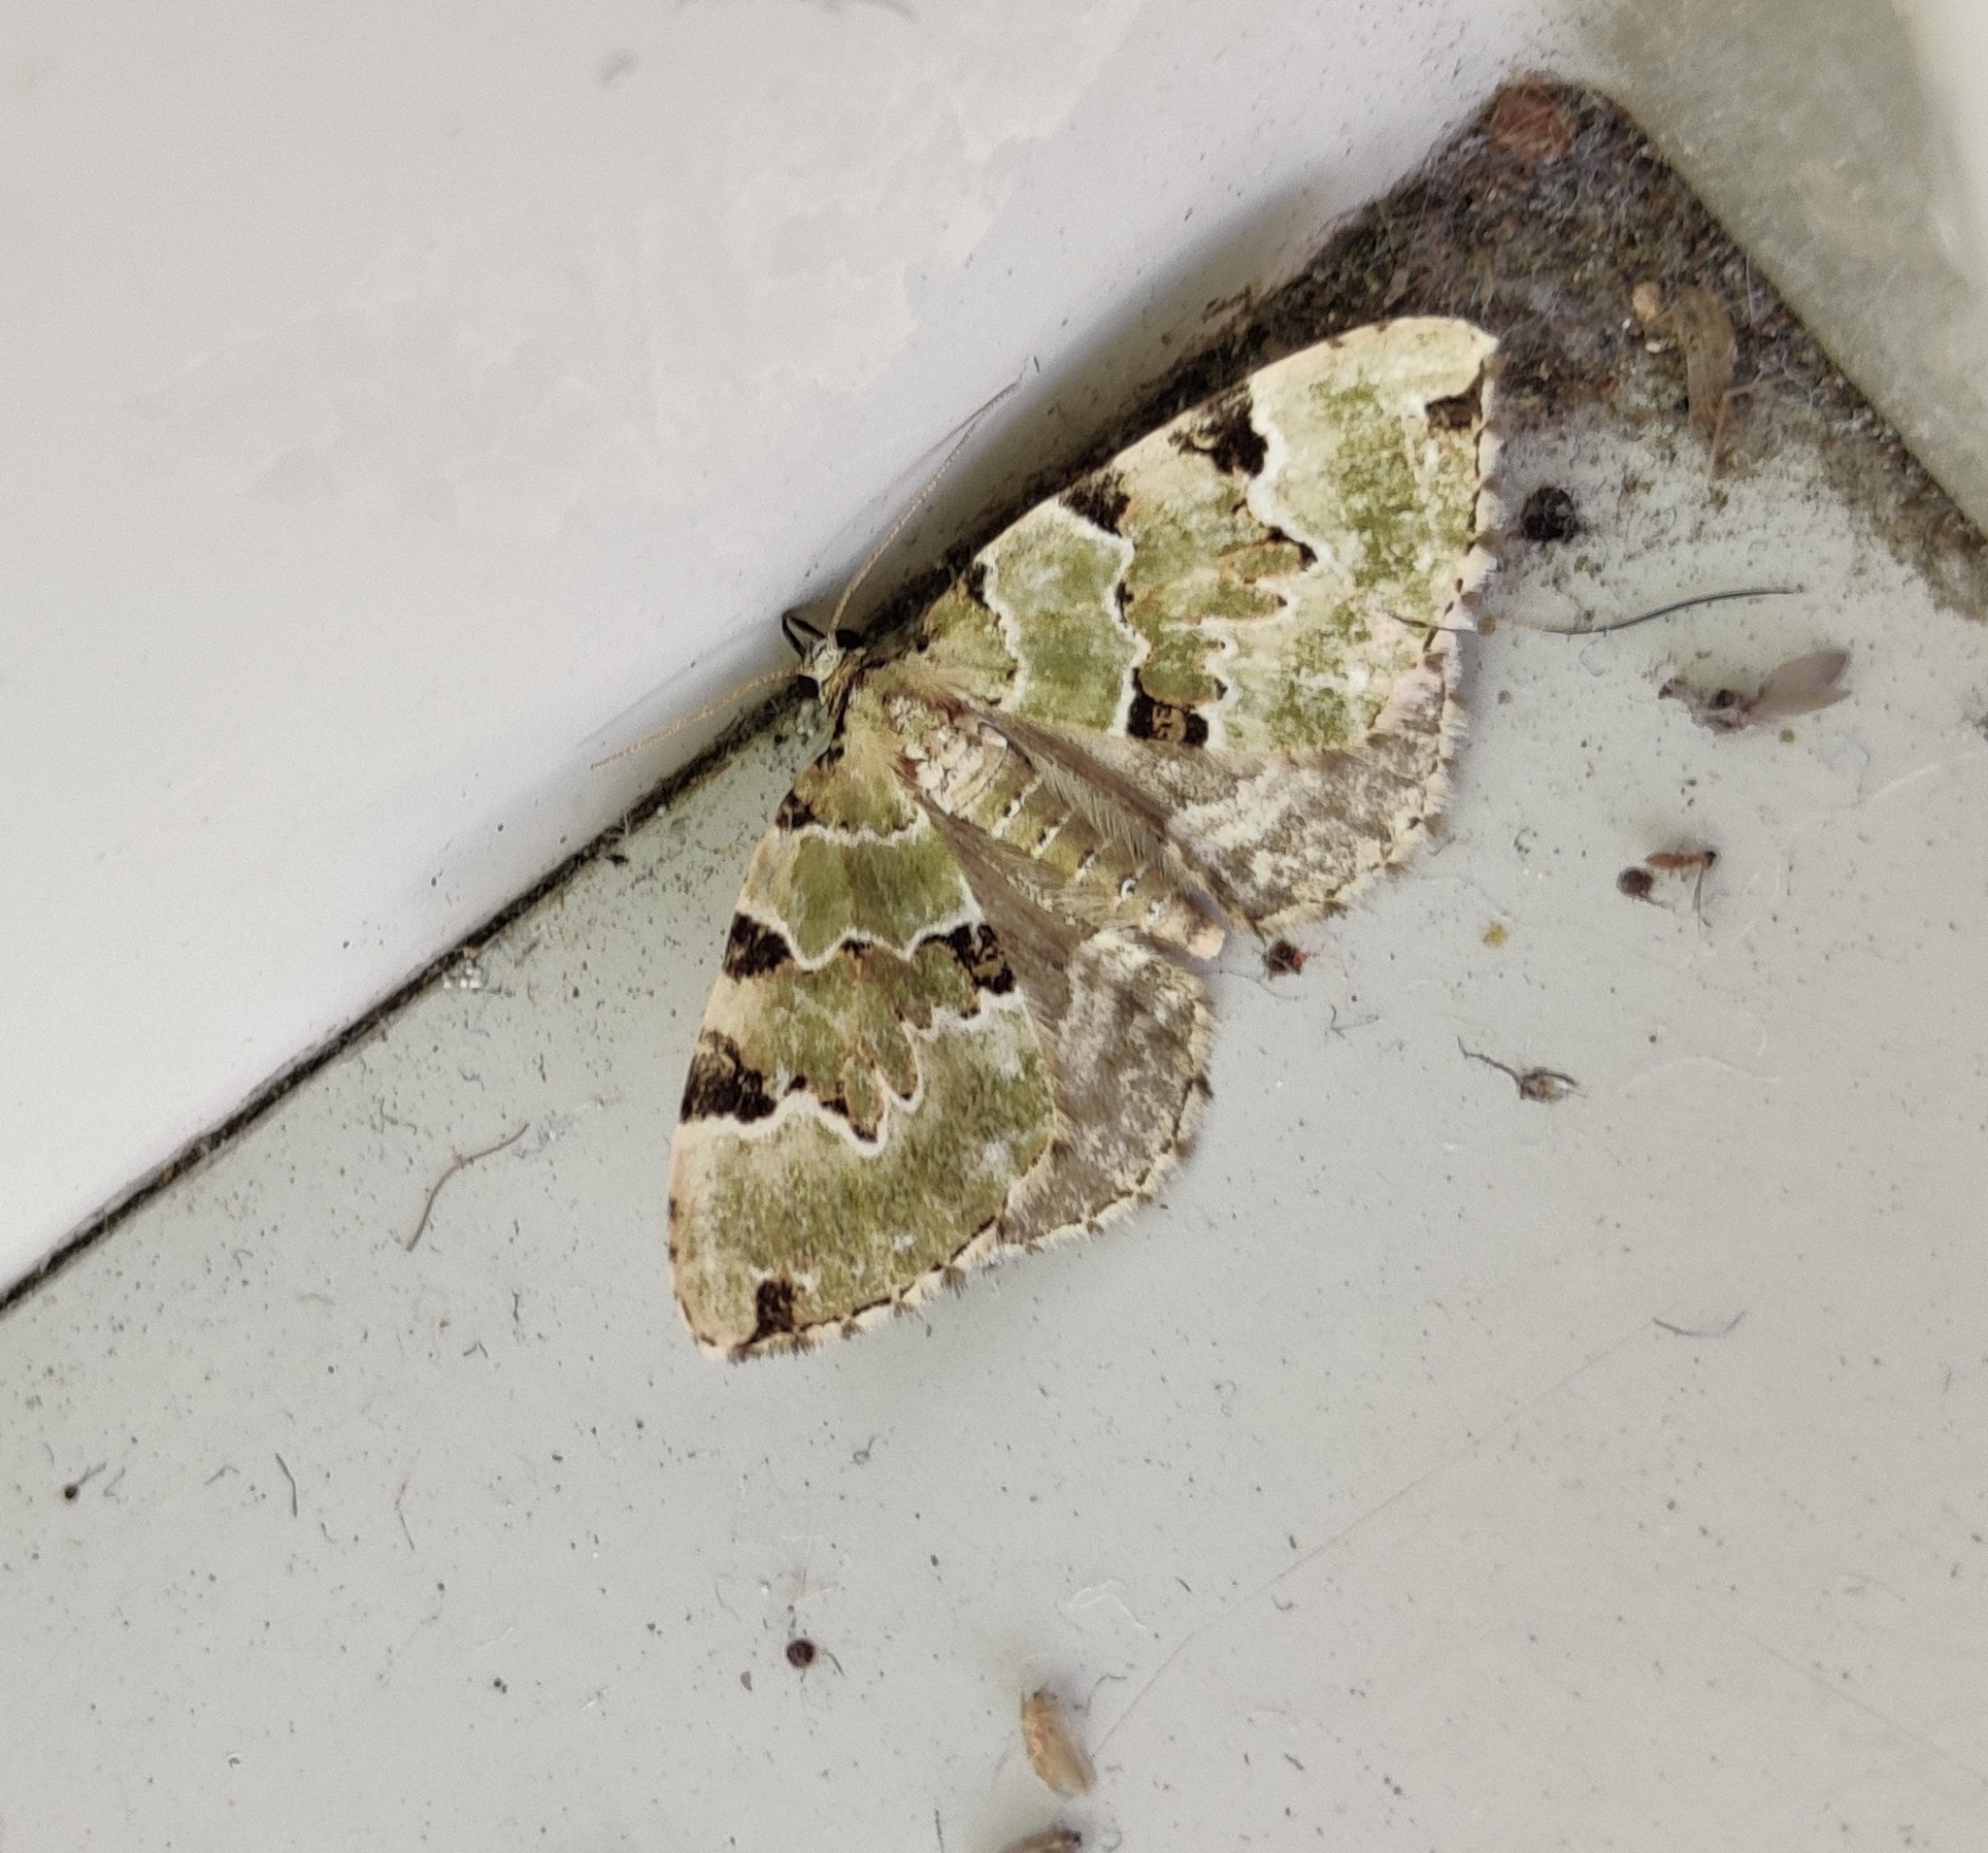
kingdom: Animalia
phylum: Arthropoda
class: Insecta
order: Lepidoptera
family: Geometridae
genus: Colostygia
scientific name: Colostygia pectinataria
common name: Green carpet
